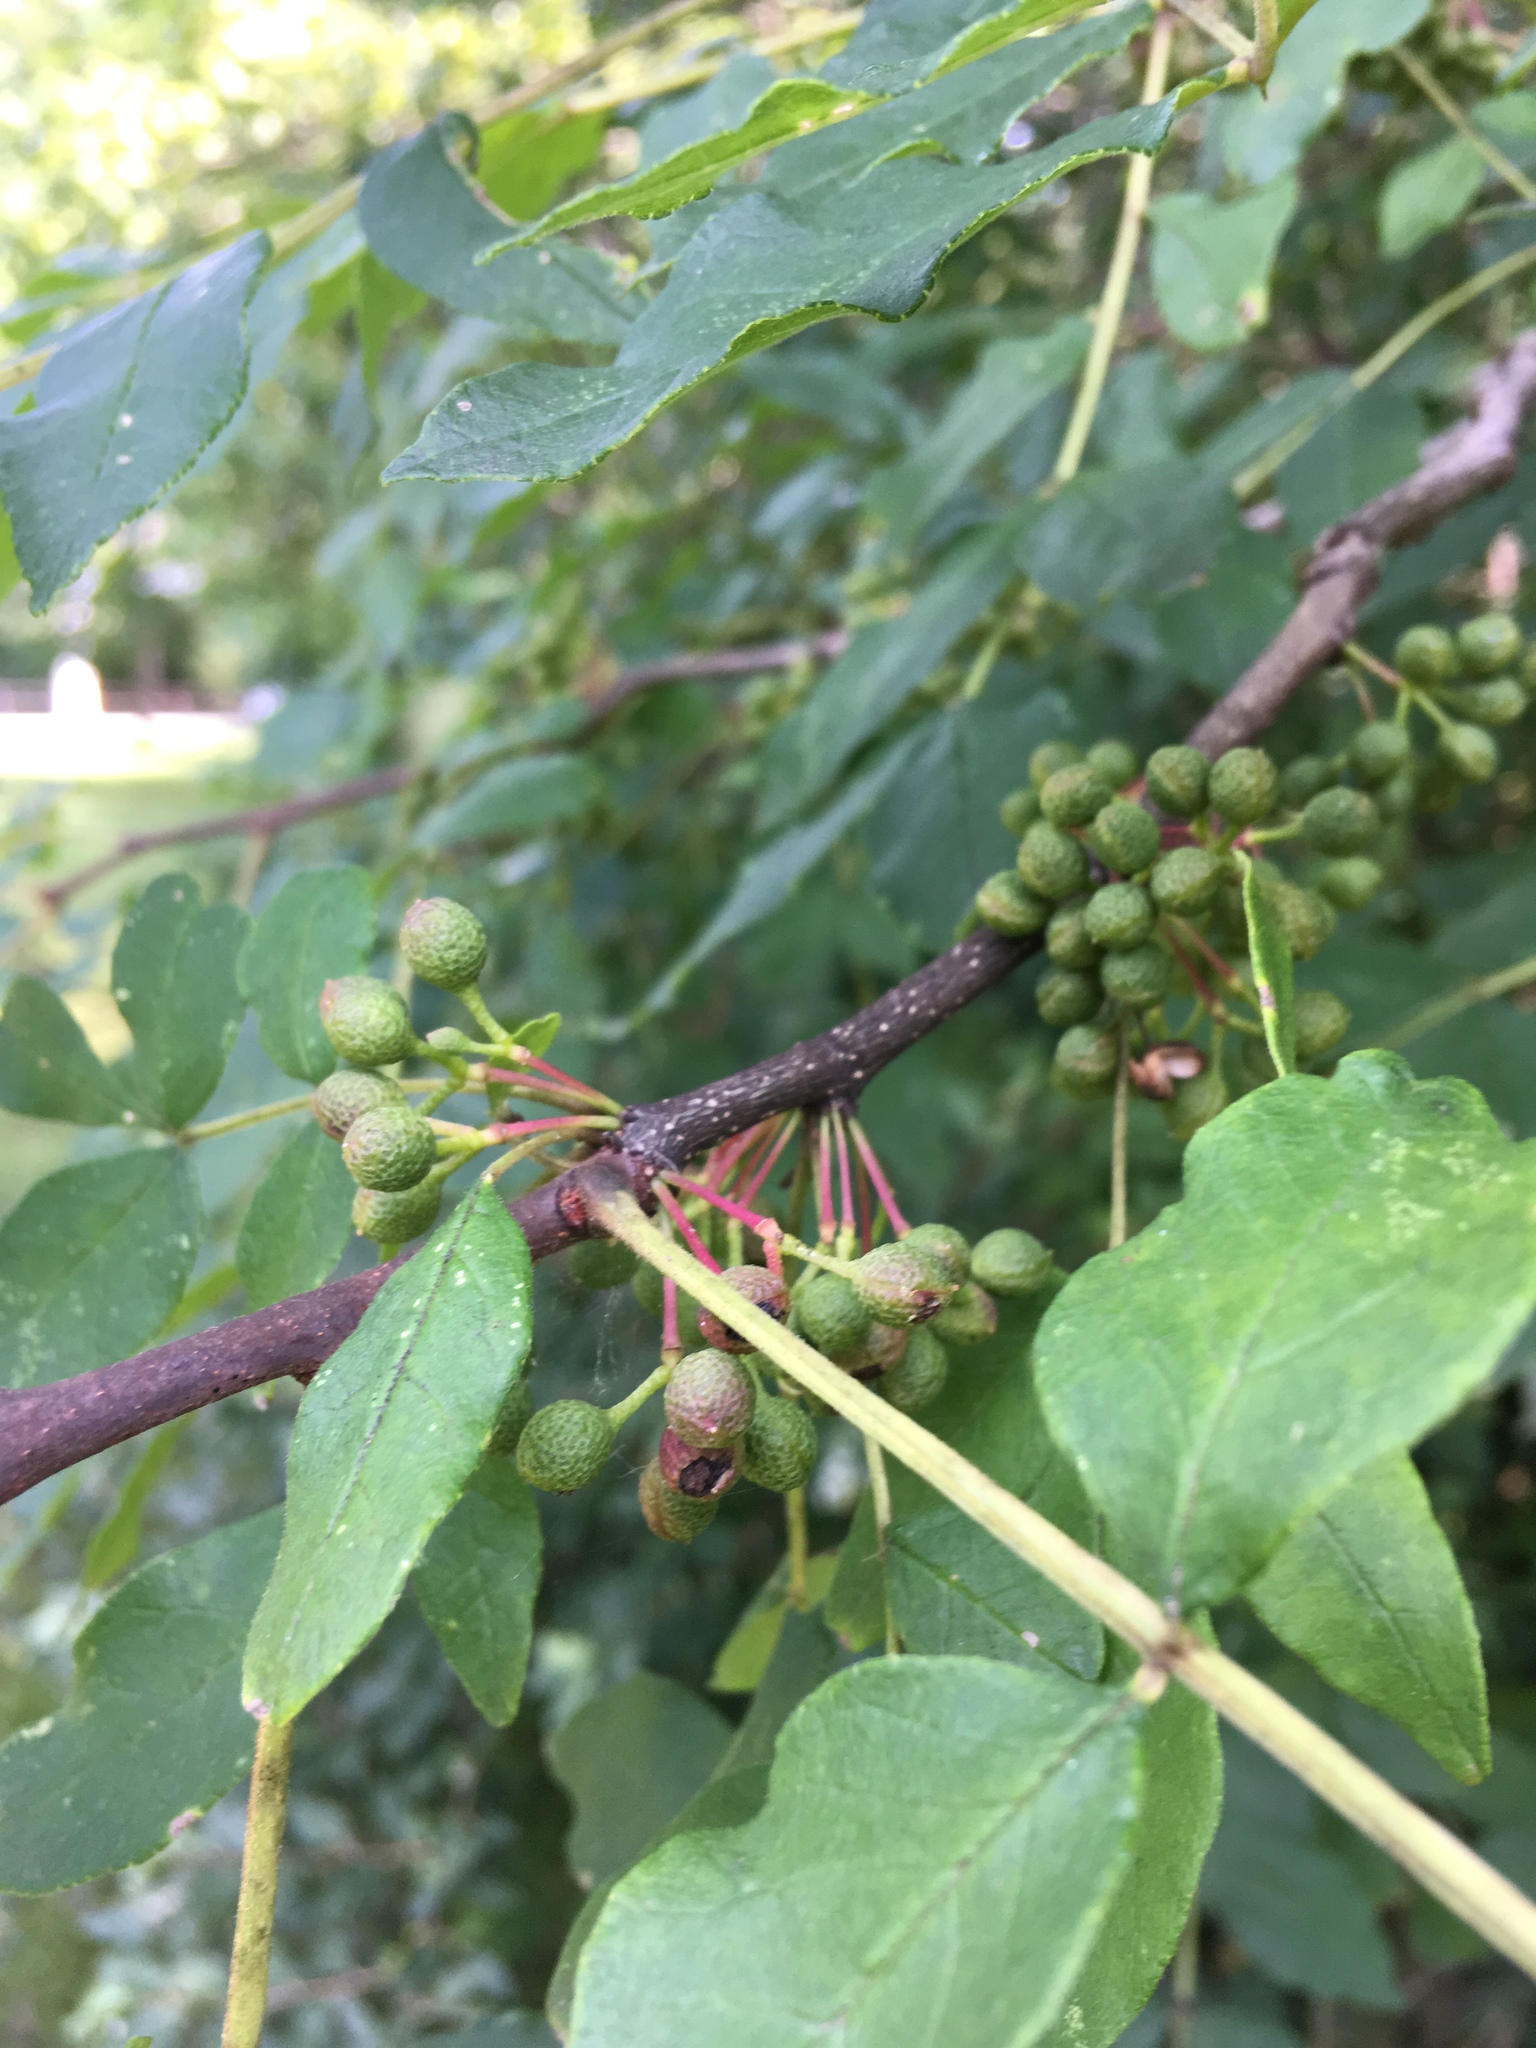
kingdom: Plantae
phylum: Tracheophyta
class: Magnoliopsida
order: Sapindales
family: Rutaceae
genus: Zanthoxylum
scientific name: Zanthoxylum americanum
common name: Northern prickly-ash
